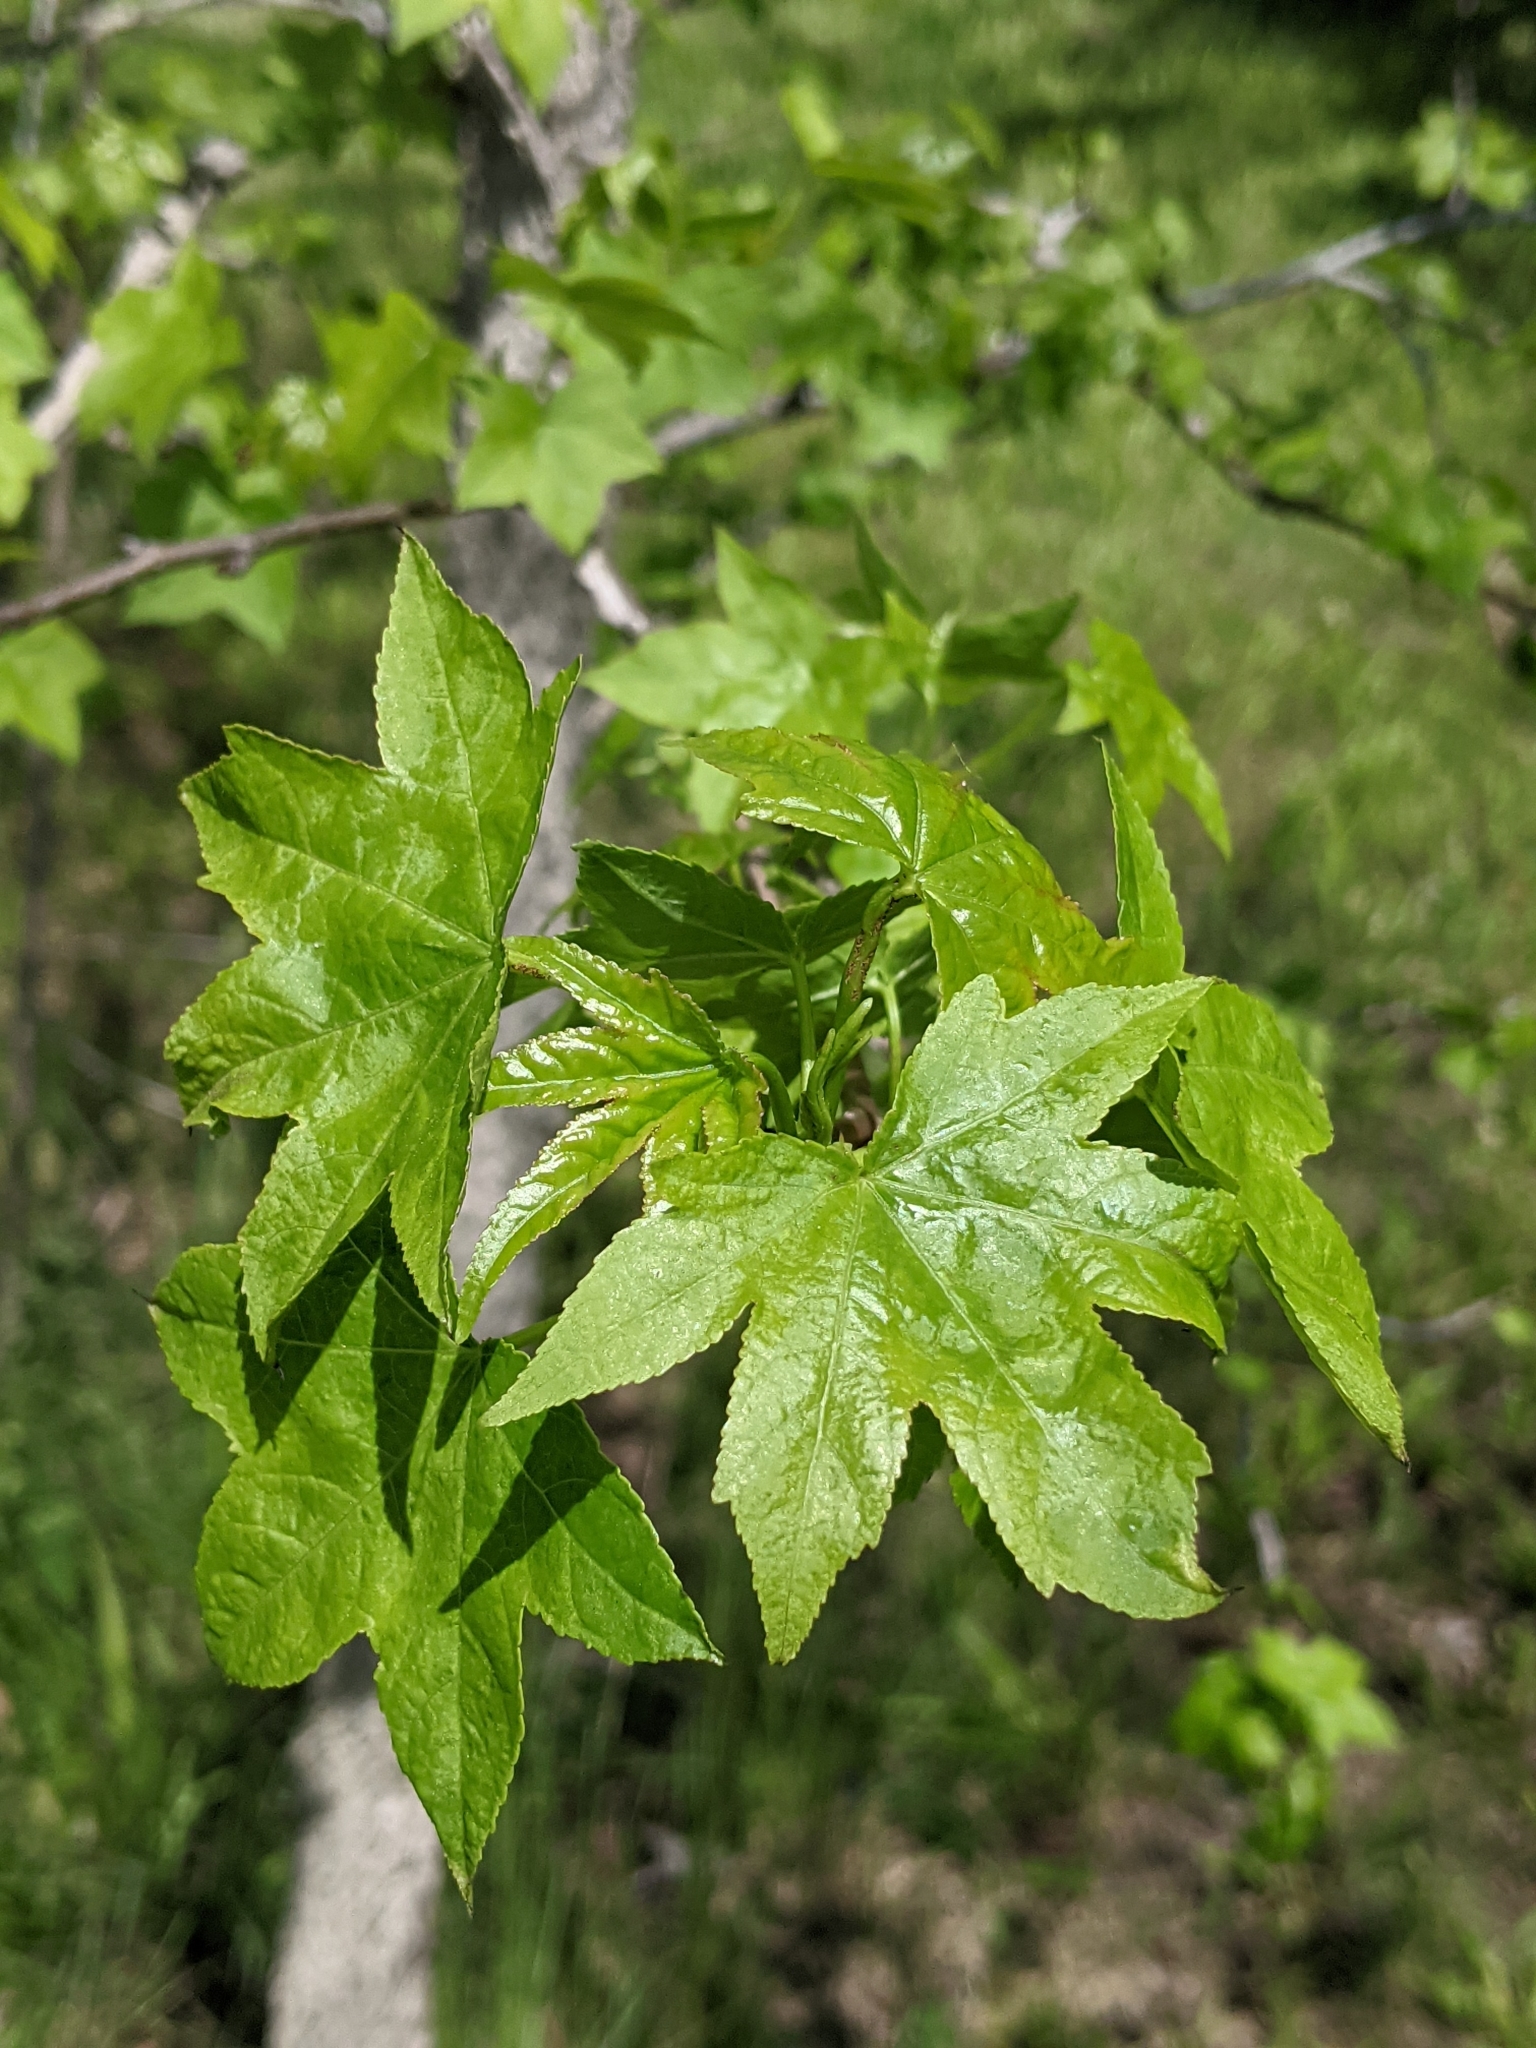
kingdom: Plantae
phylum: Tracheophyta
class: Magnoliopsida
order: Saxifragales
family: Altingiaceae
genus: Liquidambar
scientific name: Liquidambar styraciflua
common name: Sweet gum
